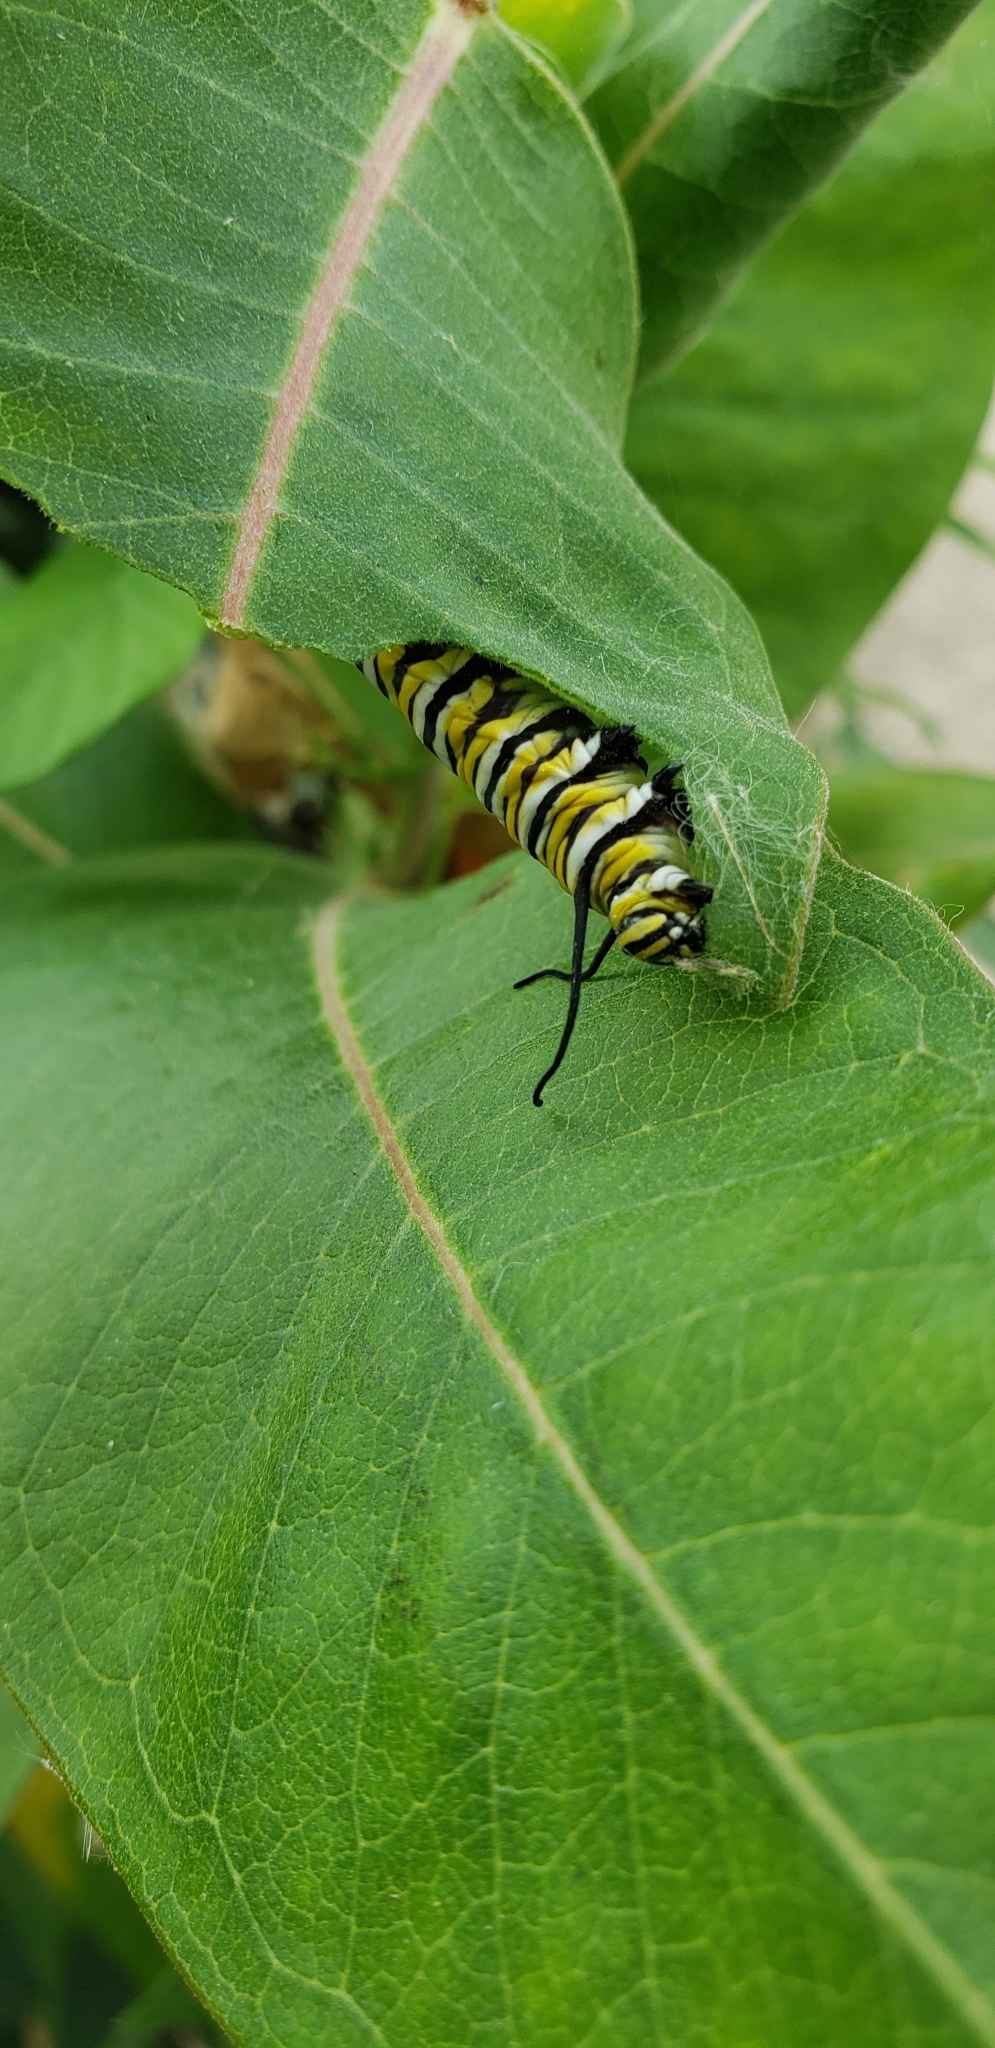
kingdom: Animalia
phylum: Arthropoda
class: Insecta
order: Lepidoptera
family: Nymphalidae
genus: Danaus
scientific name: Danaus plexippus
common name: Monarch
